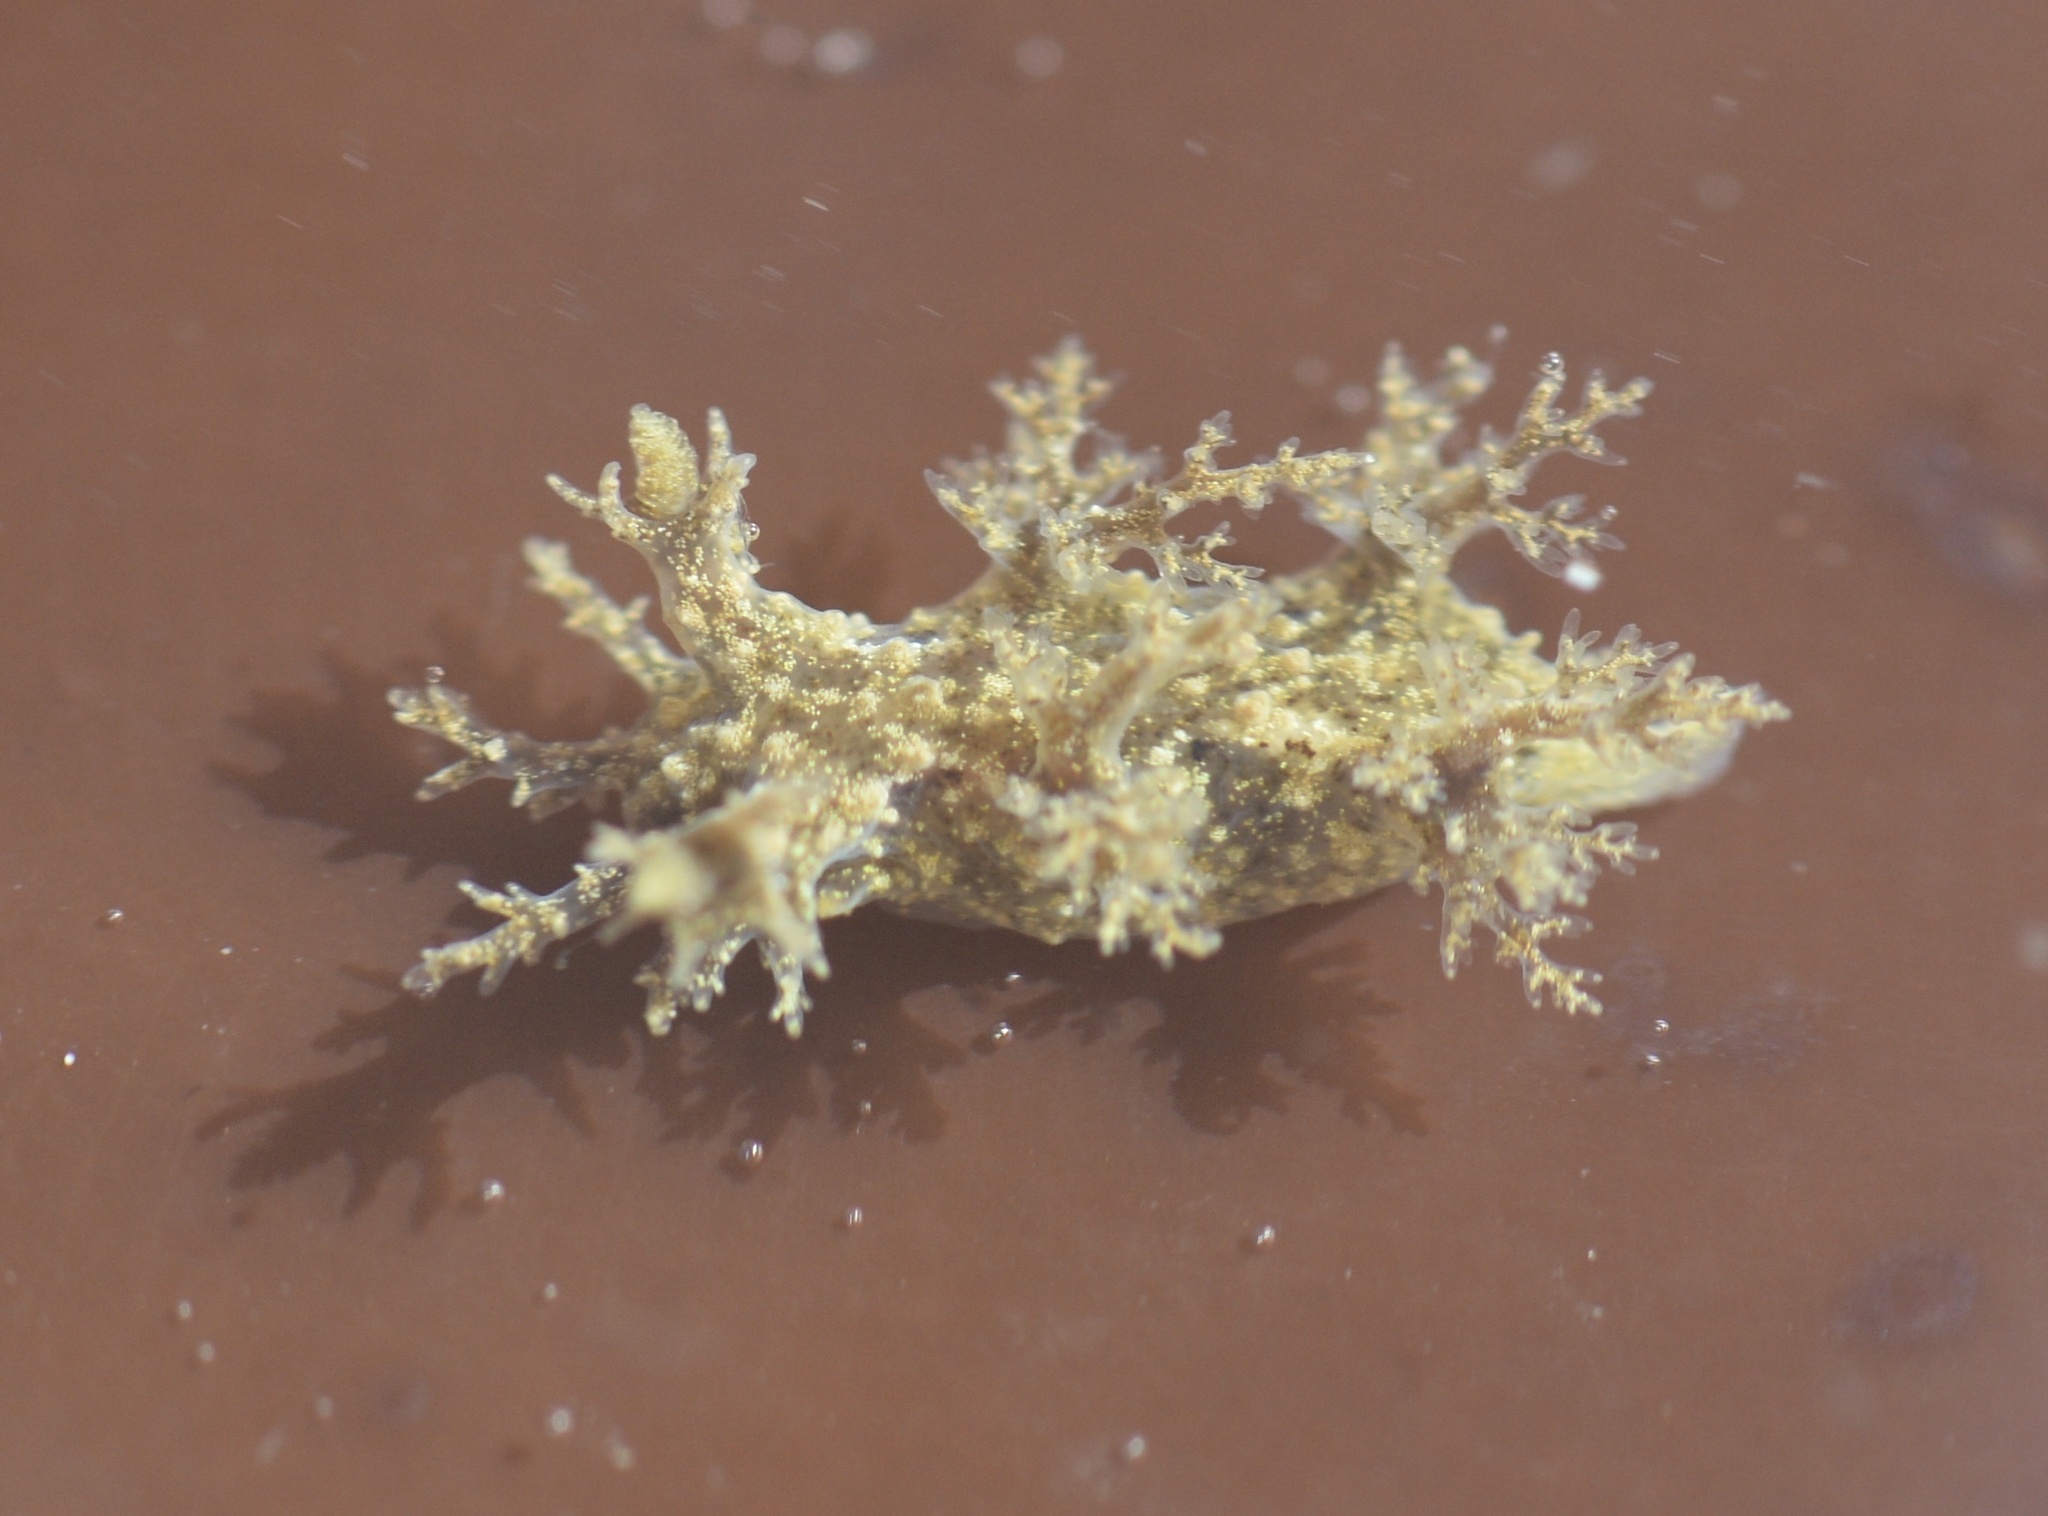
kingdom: Animalia
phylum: Mollusca
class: Gastropoda
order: Nudibranchia
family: Dendronotidae
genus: Dendronotus
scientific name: Dendronotus venustus
